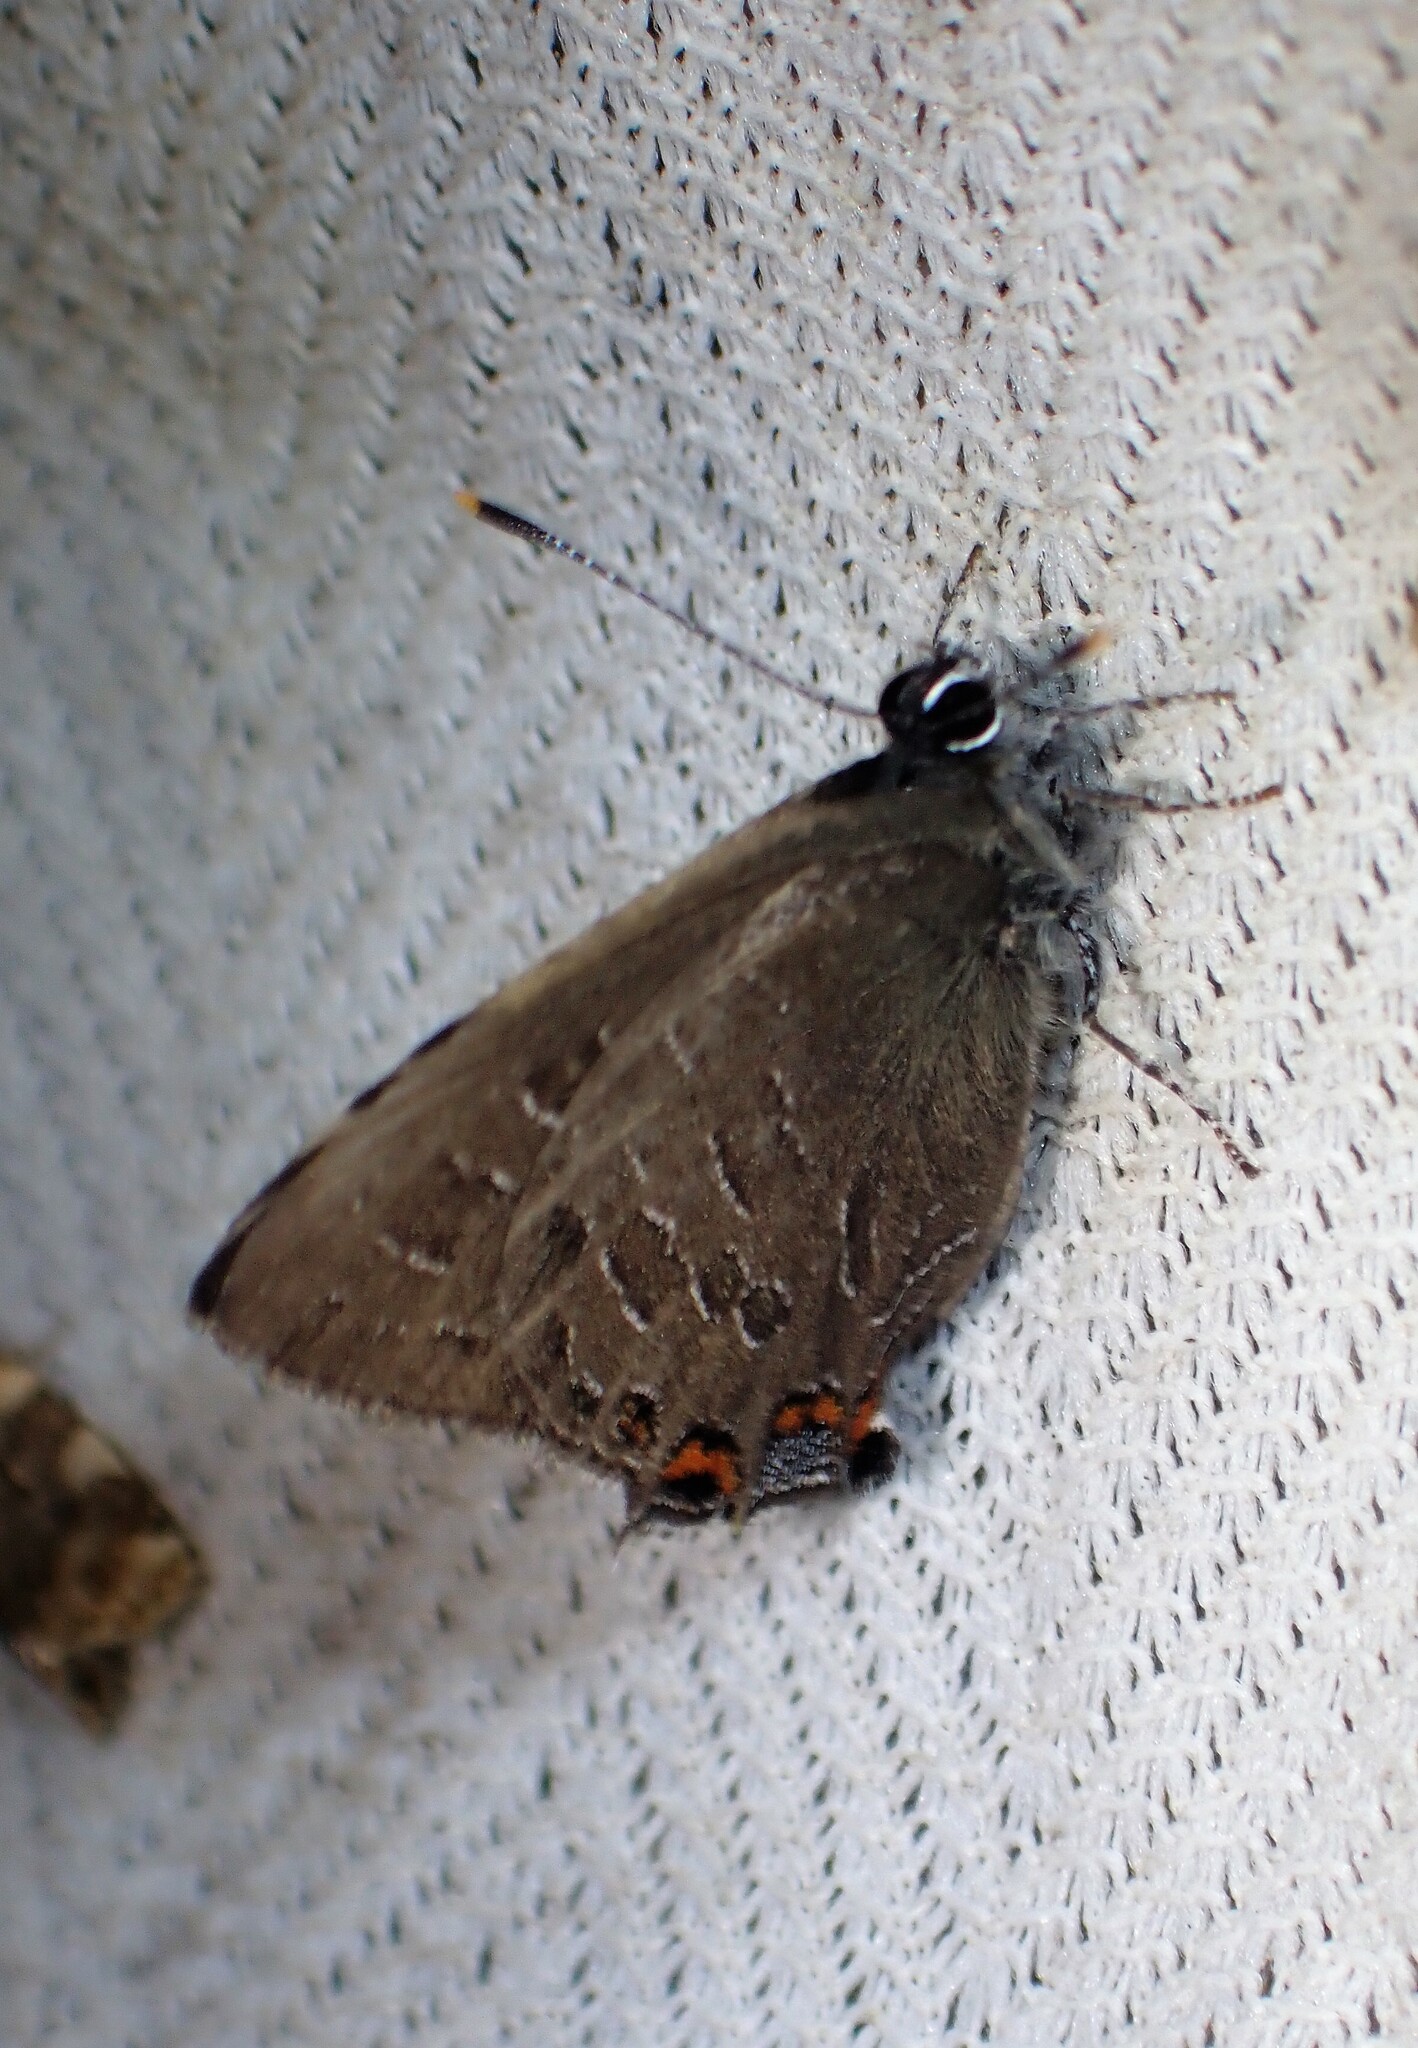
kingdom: Animalia
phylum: Arthropoda
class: Insecta
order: Lepidoptera
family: Lycaenidae
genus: Satyrium
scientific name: Satyrium liparops
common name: Striped hairstreak
